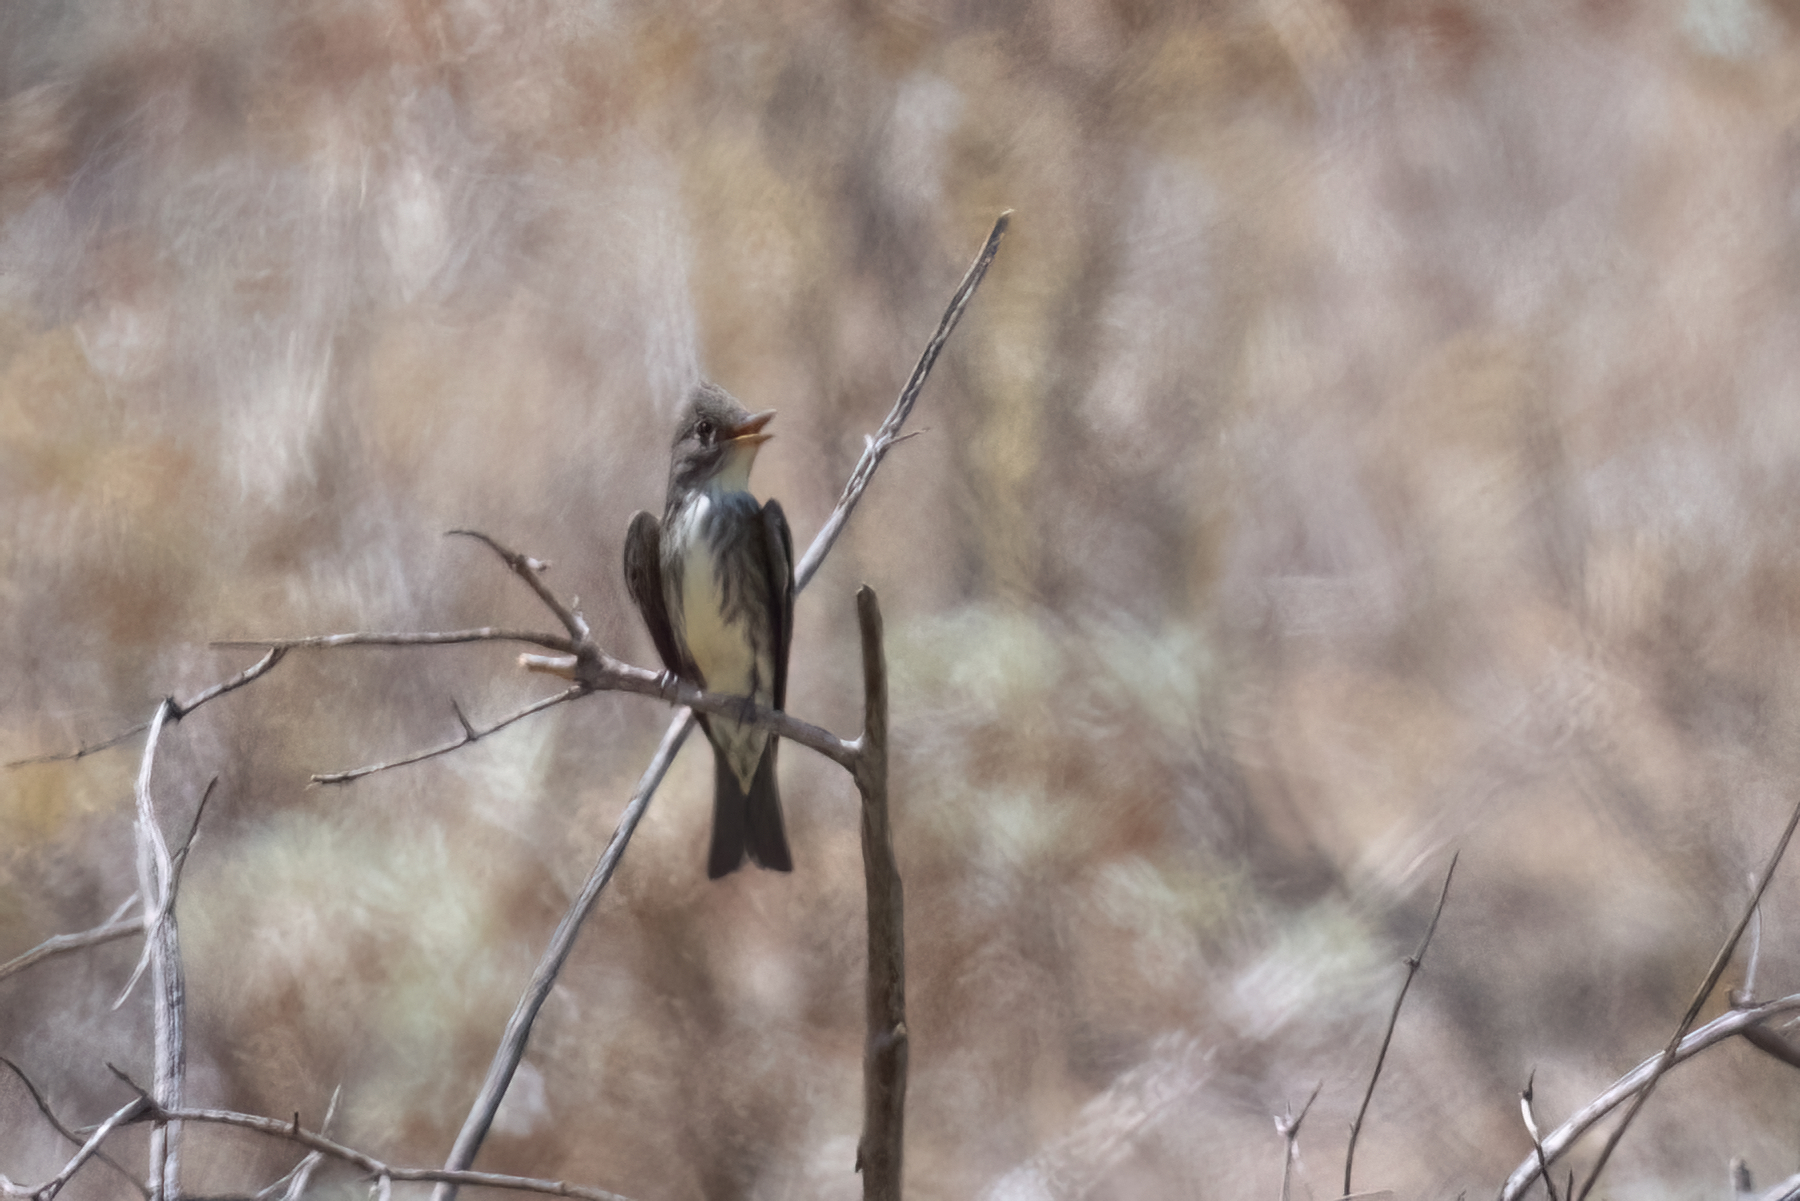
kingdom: Animalia
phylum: Chordata
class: Aves
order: Passeriformes
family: Tyrannidae
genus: Contopus
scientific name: Contopus cooperi
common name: Olive-sided flycatcher
